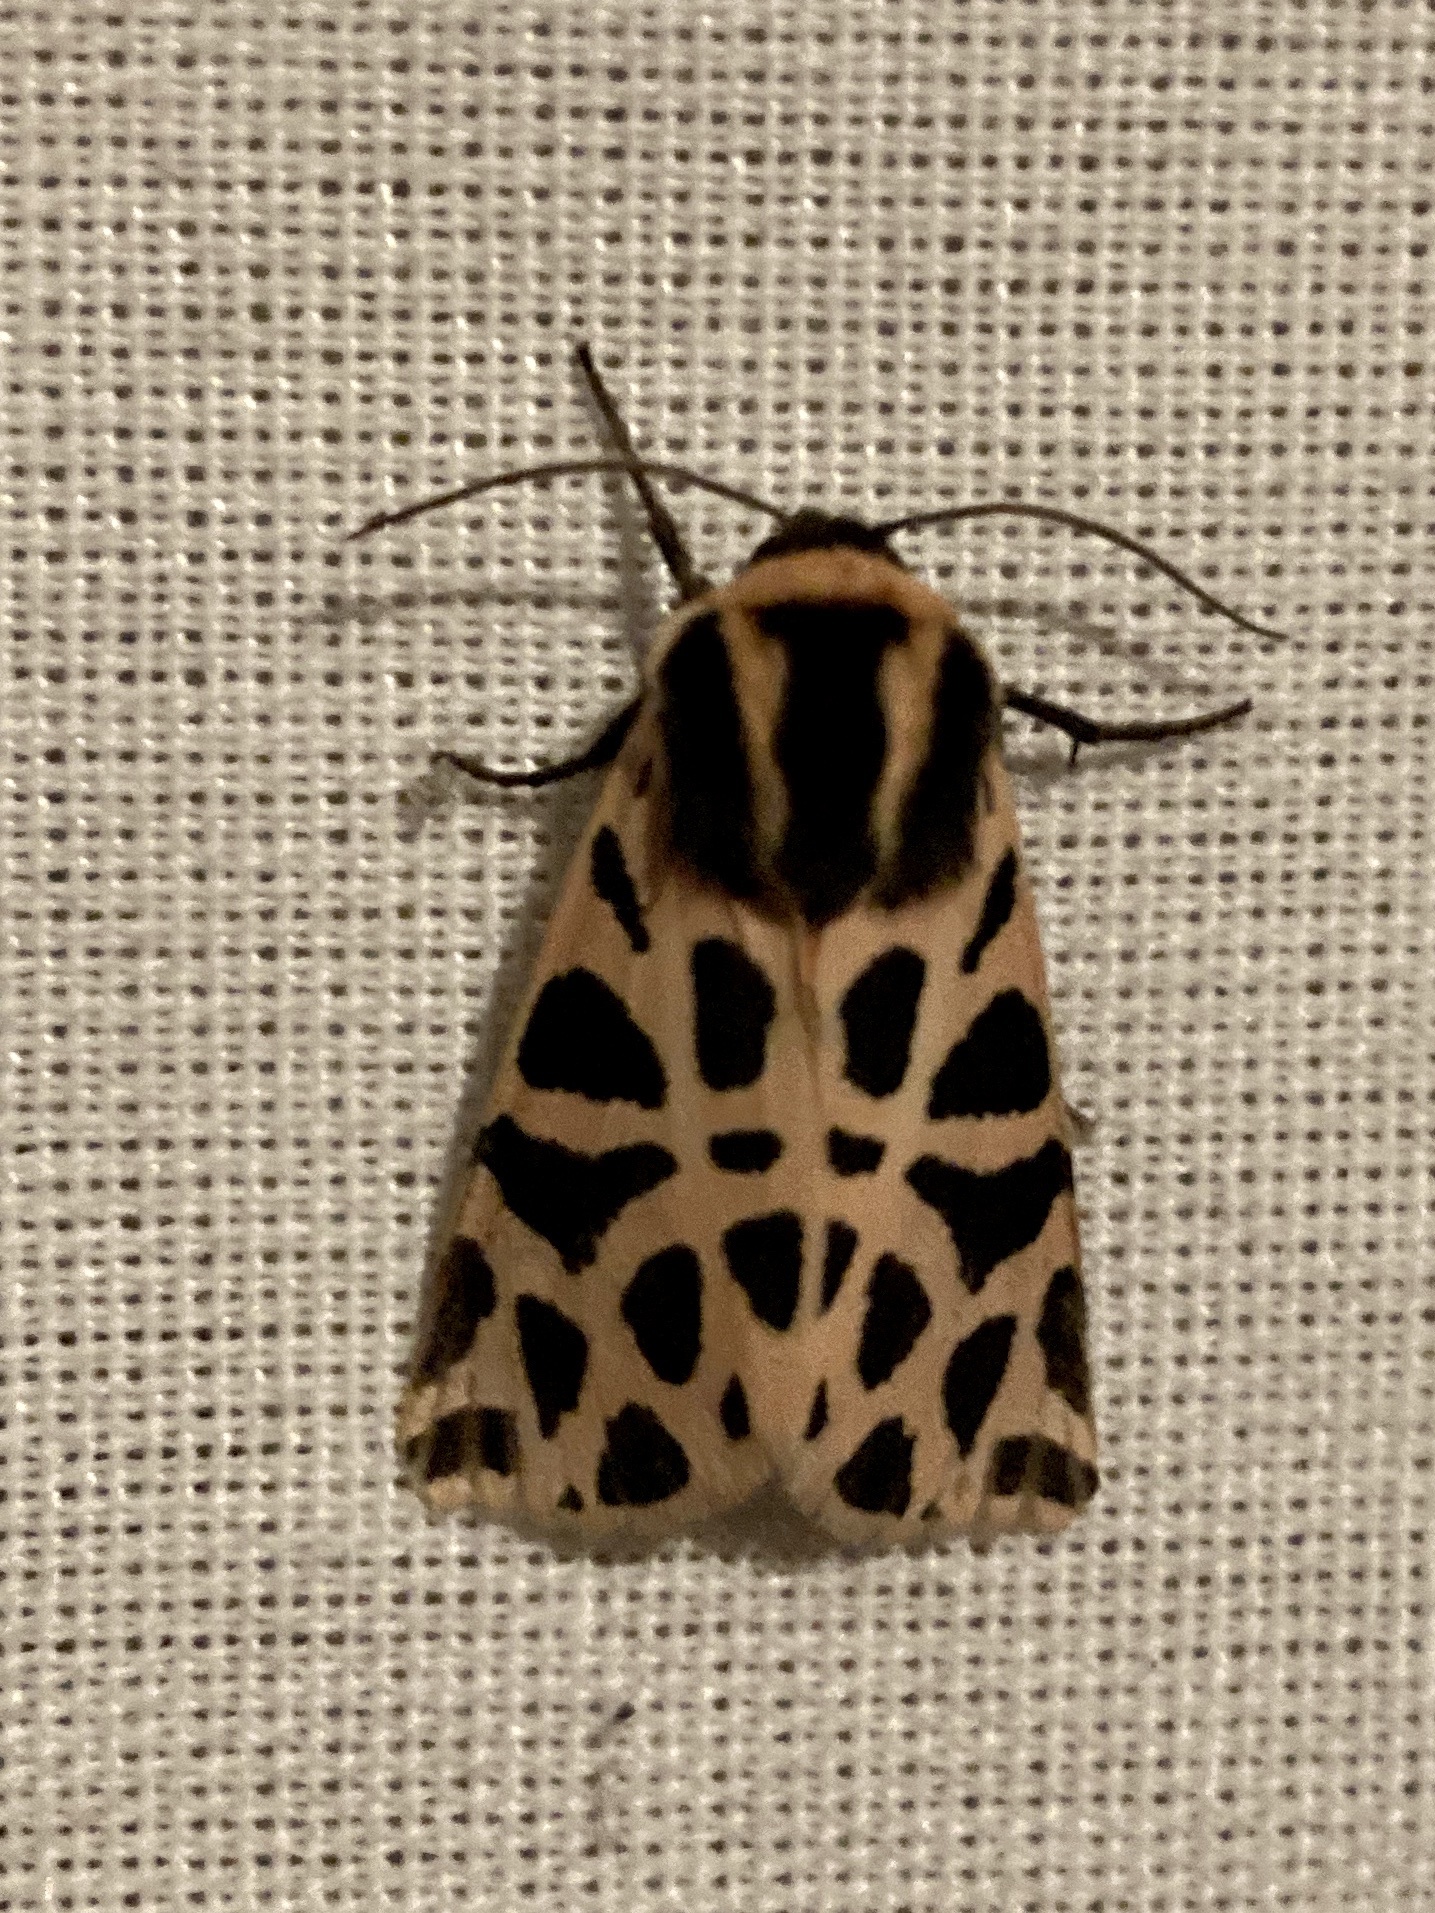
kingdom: Animalia
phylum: Arthropoda
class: Insecta
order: Lepidoptera
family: Erebidae
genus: Cymbalophora
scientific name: Cymbalophora pudica
